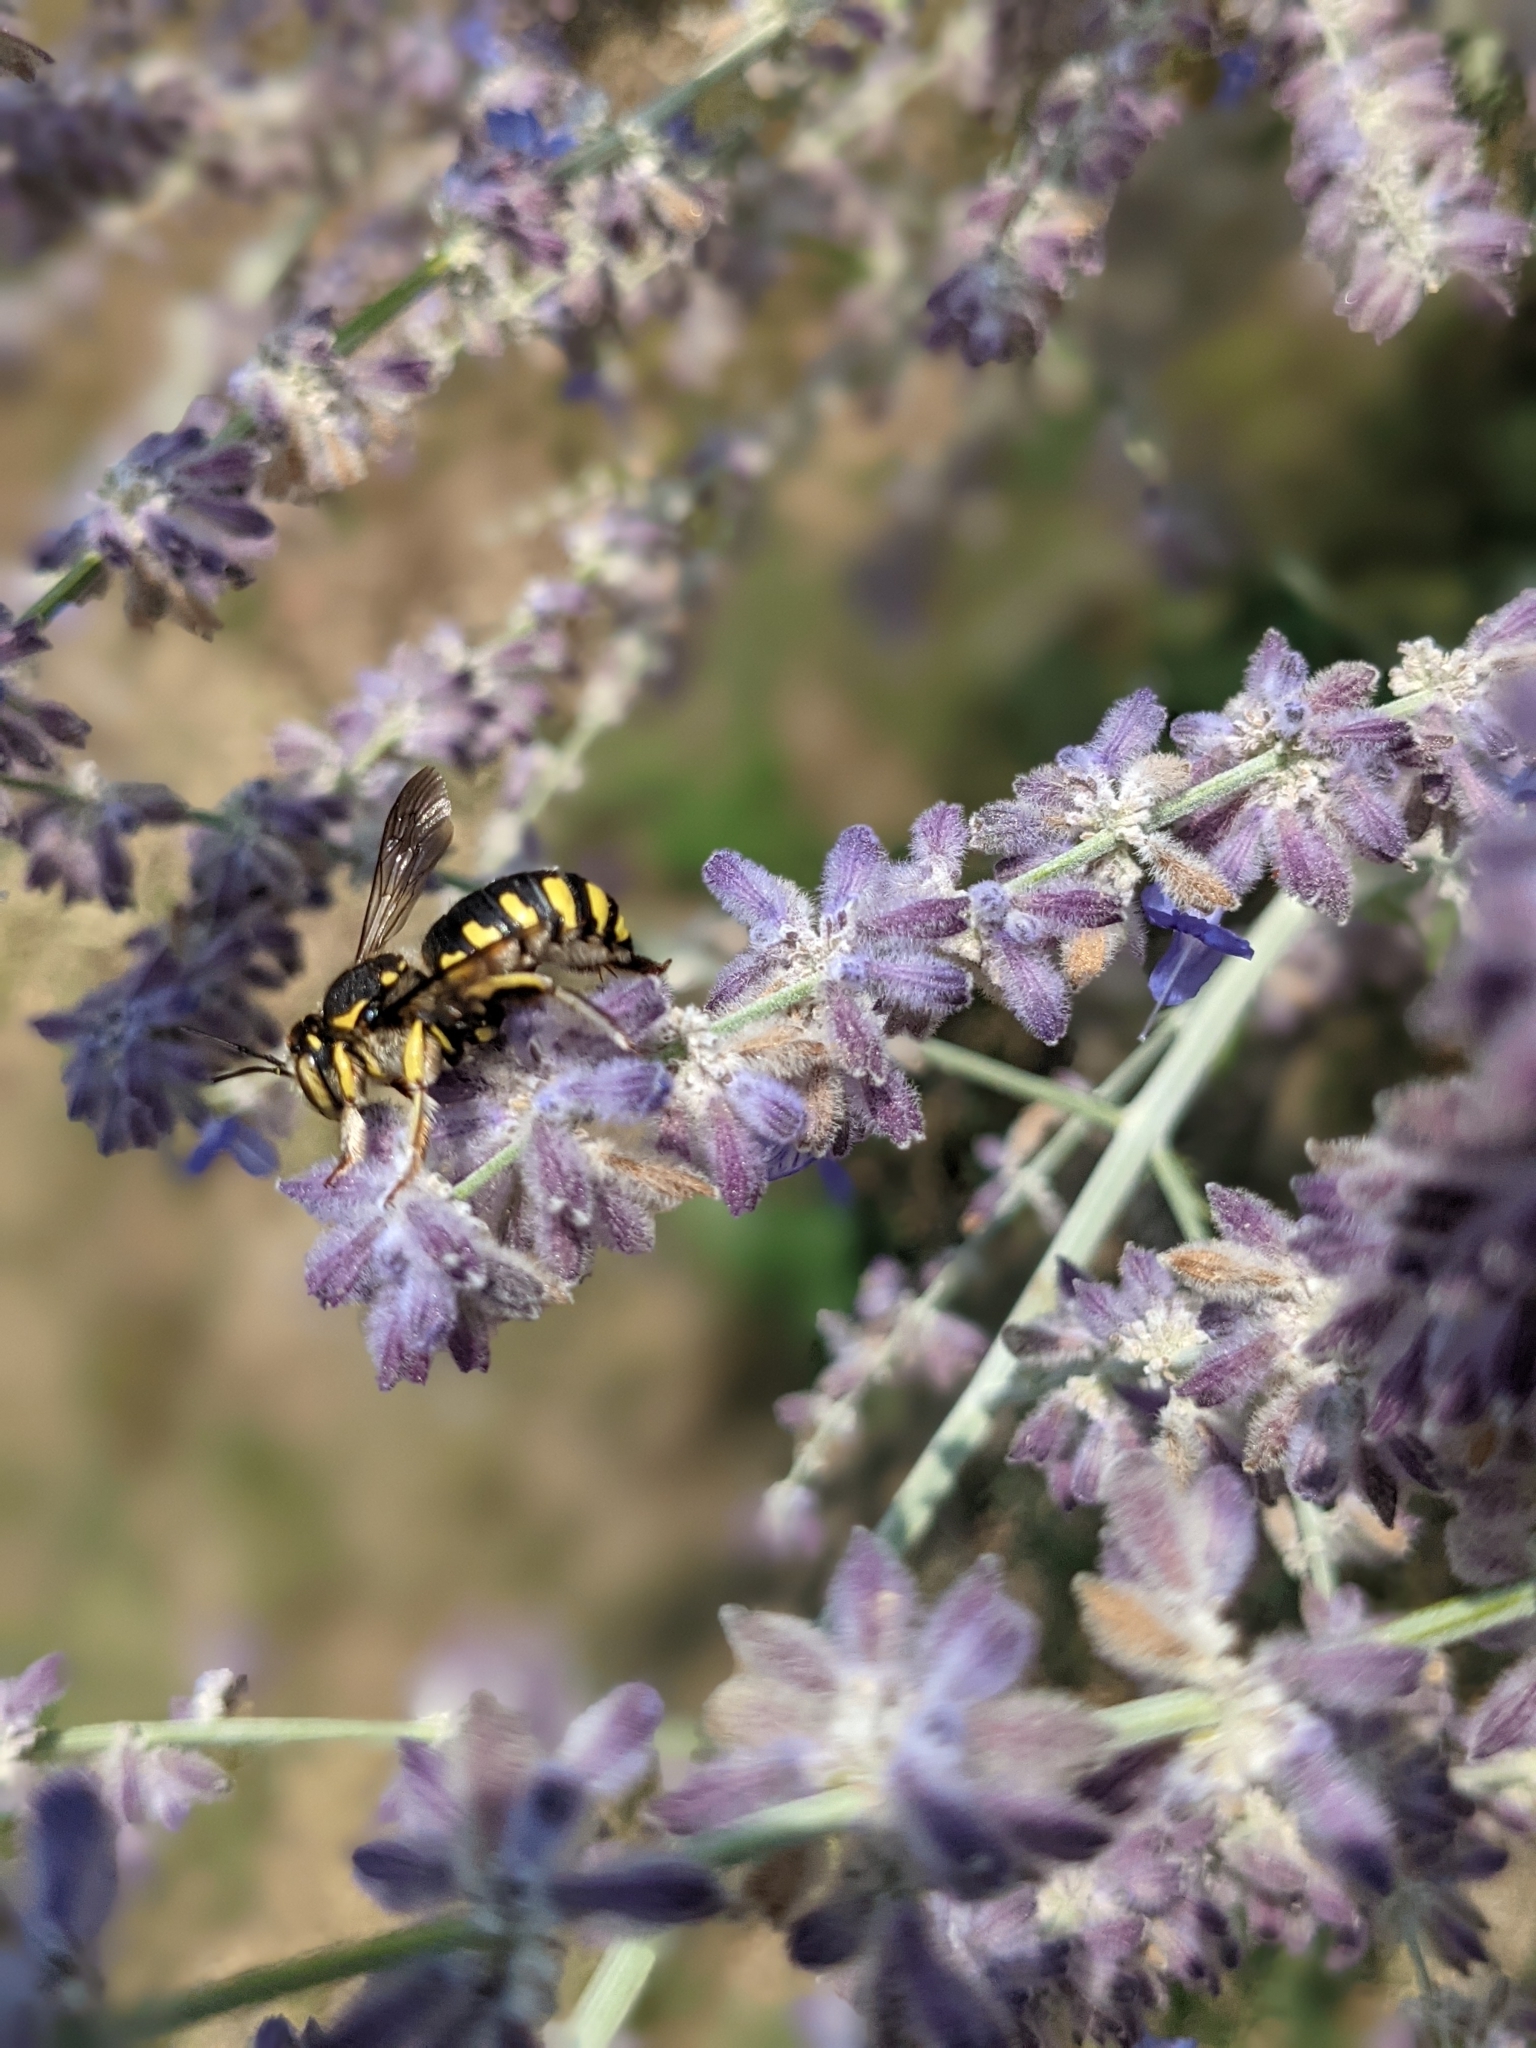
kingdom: Animalia
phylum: Arthropoda
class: Insecta
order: Hymenoptera
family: Megachilidae
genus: Anthidium
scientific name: Anthidium florentinum
